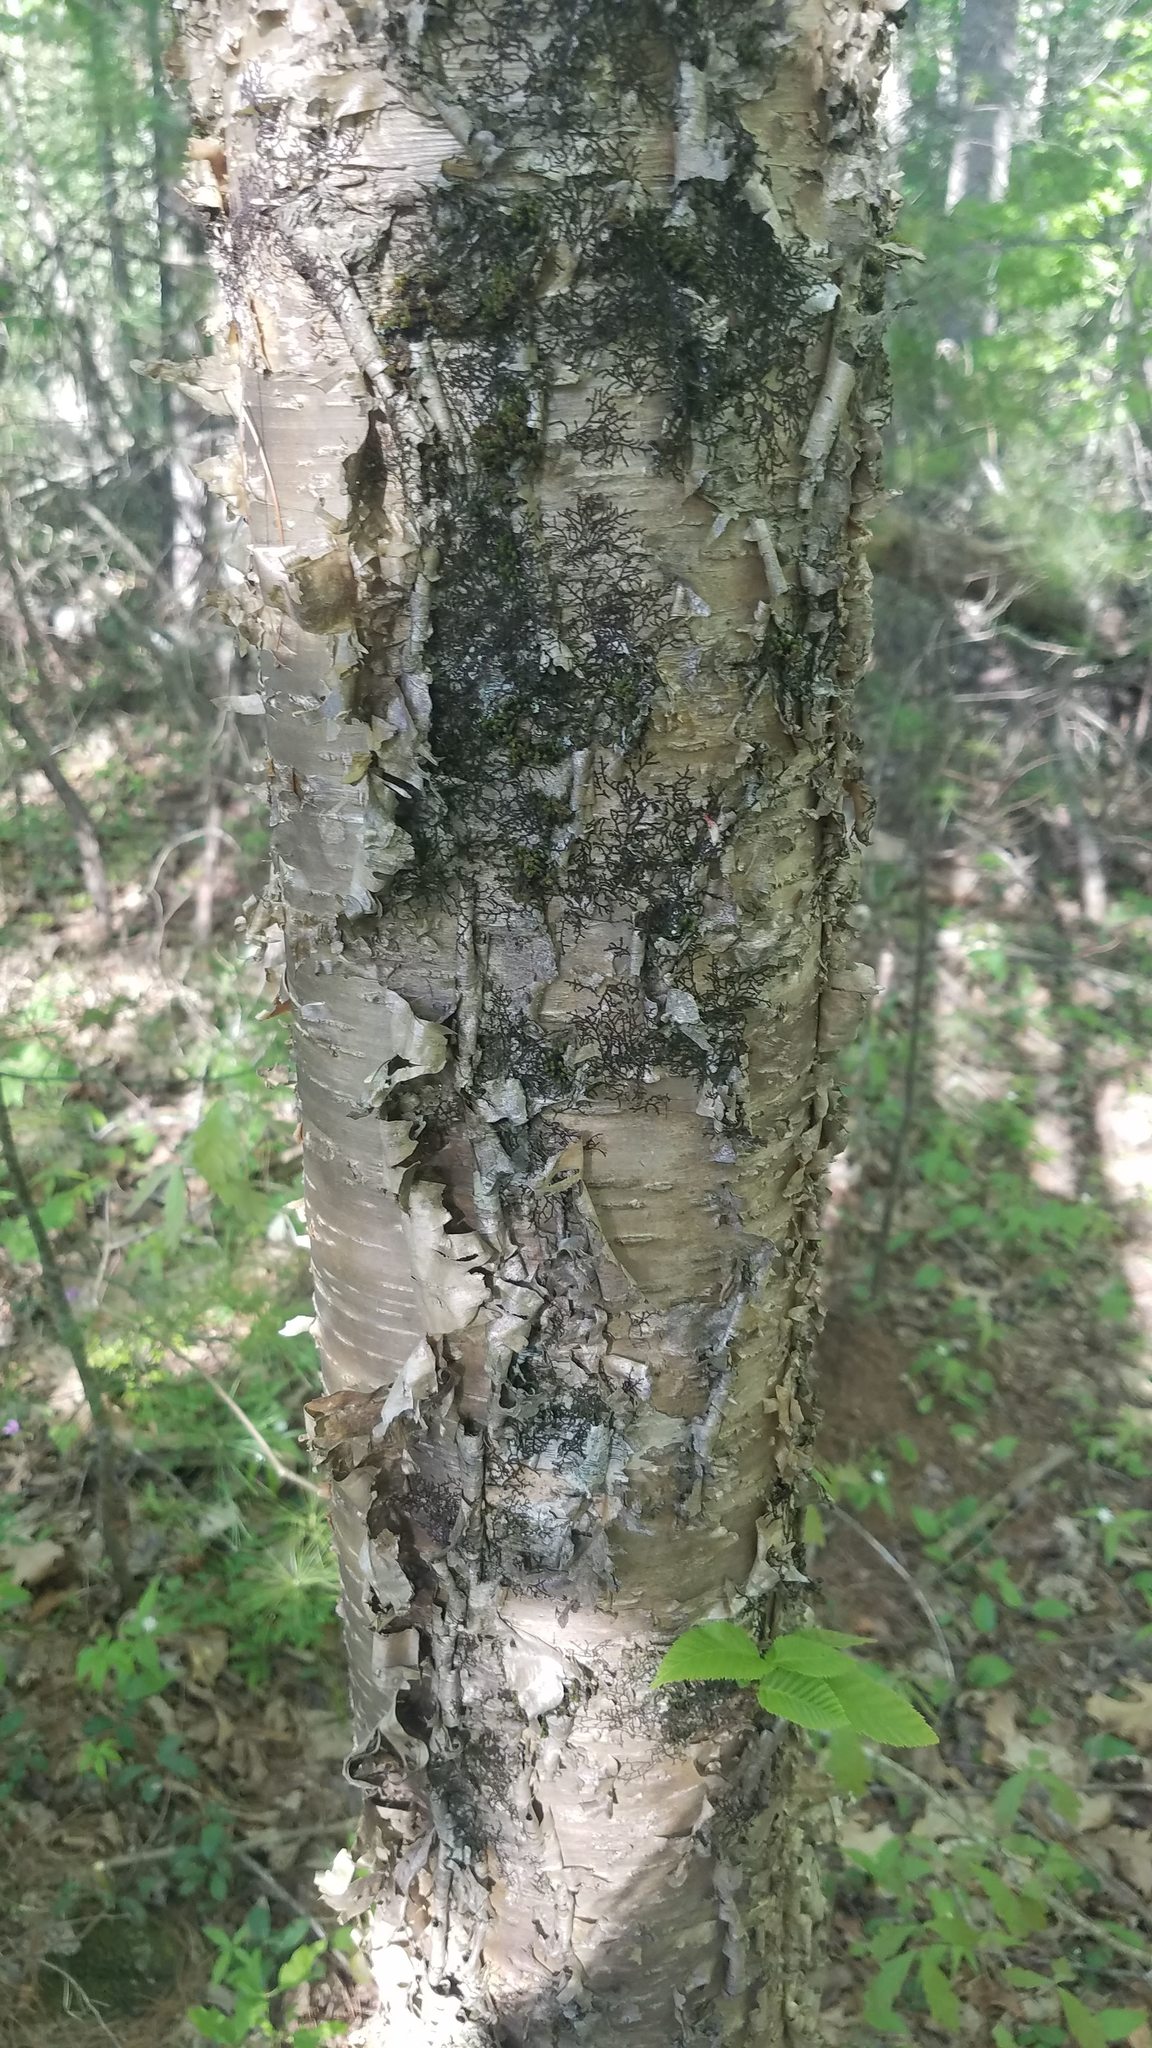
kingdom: Plantae
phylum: Tracheophyta
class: Magnoliopsida
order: Fagales
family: Betulaceae
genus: Betula
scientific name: Betula alleghaniensis
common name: Yellow birch
